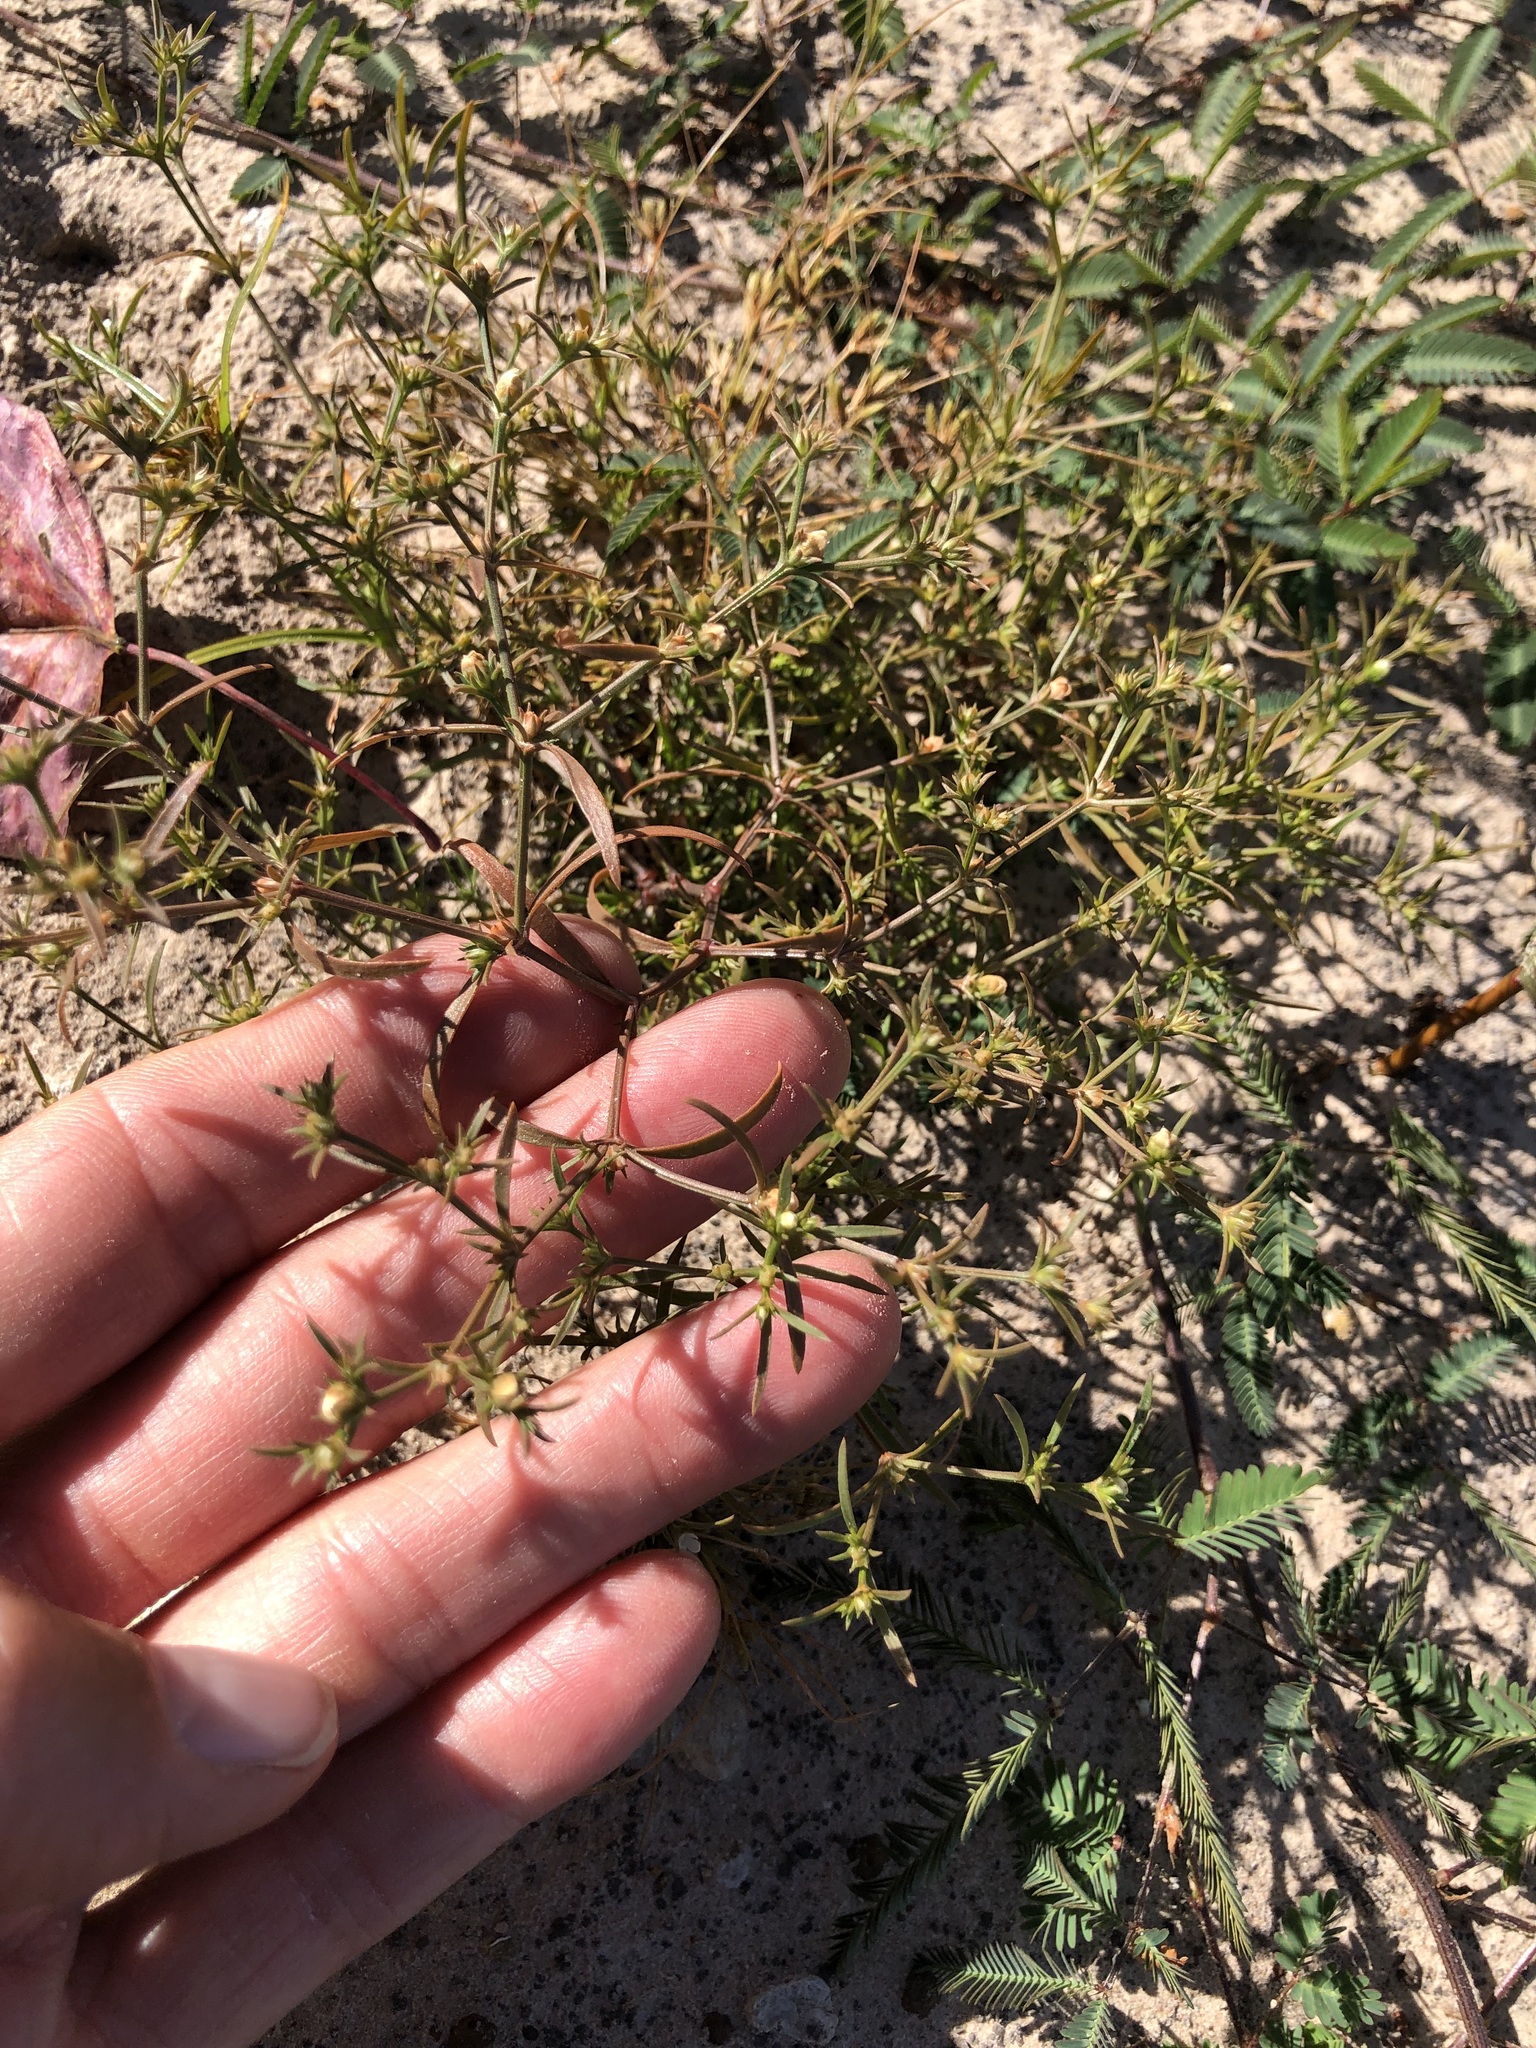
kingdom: Plantae
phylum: Tracheophyta
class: Magnoliopsida
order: Lamiales
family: Tetrachondraceae
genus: Polypremum
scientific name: Polypremum procumbens
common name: Juniper-leaf
